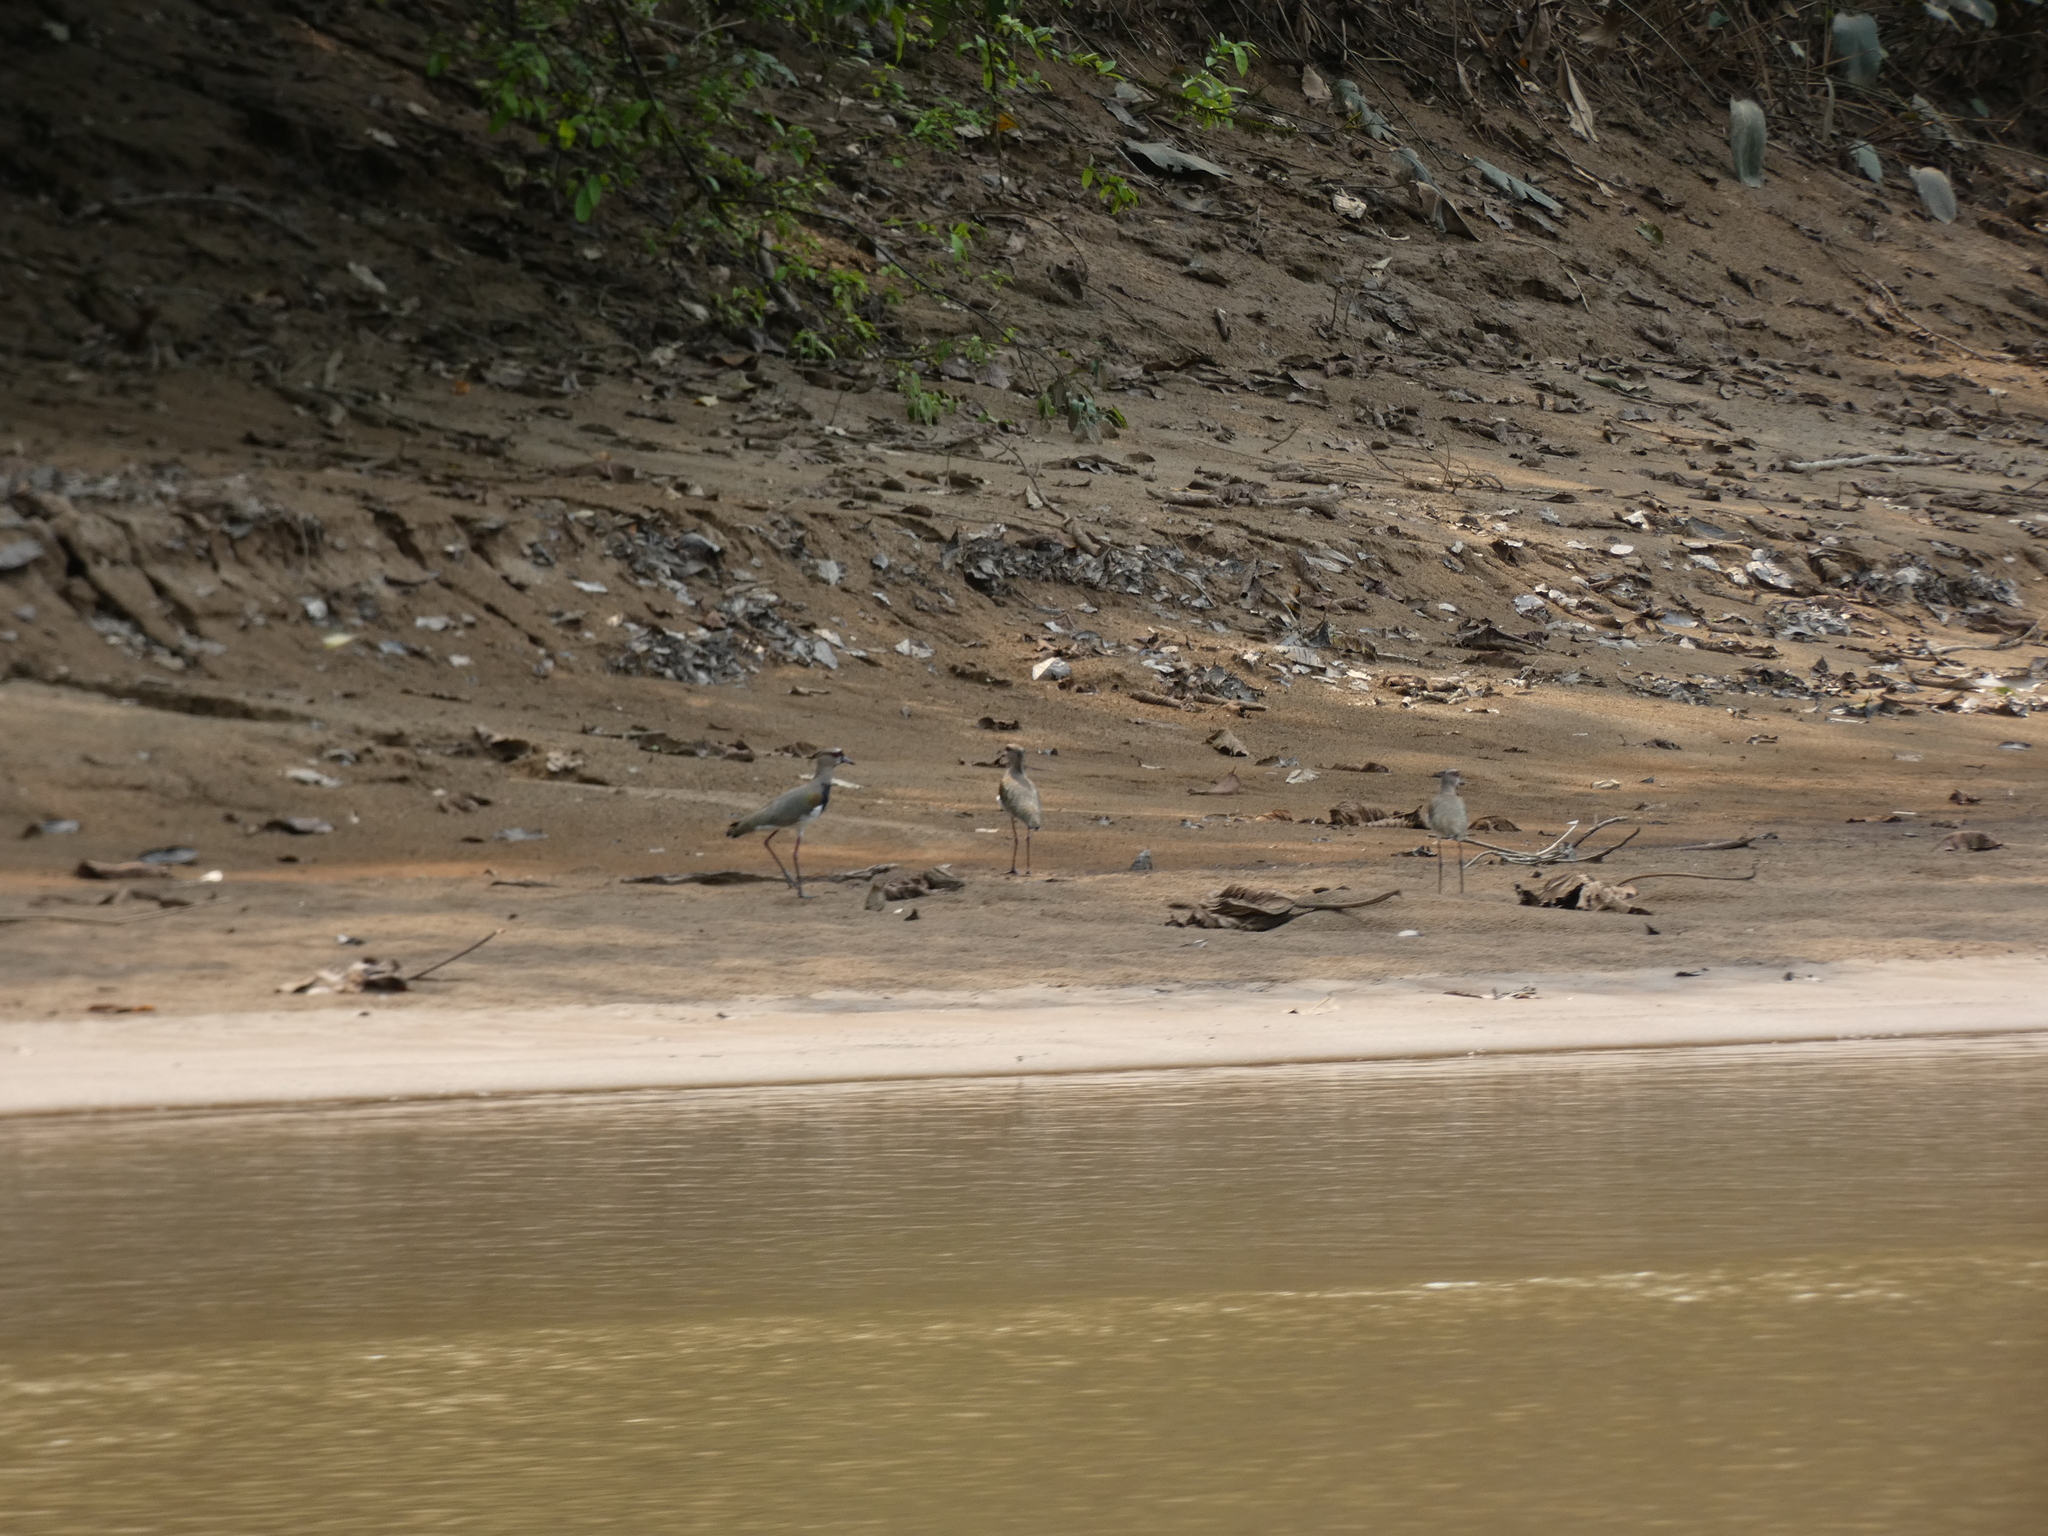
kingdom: Animalia
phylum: Chordata
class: Aves
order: Charadriiformes
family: Charadriidae
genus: Vanellus
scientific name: Vanellus chilensis
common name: Southern lapwing
